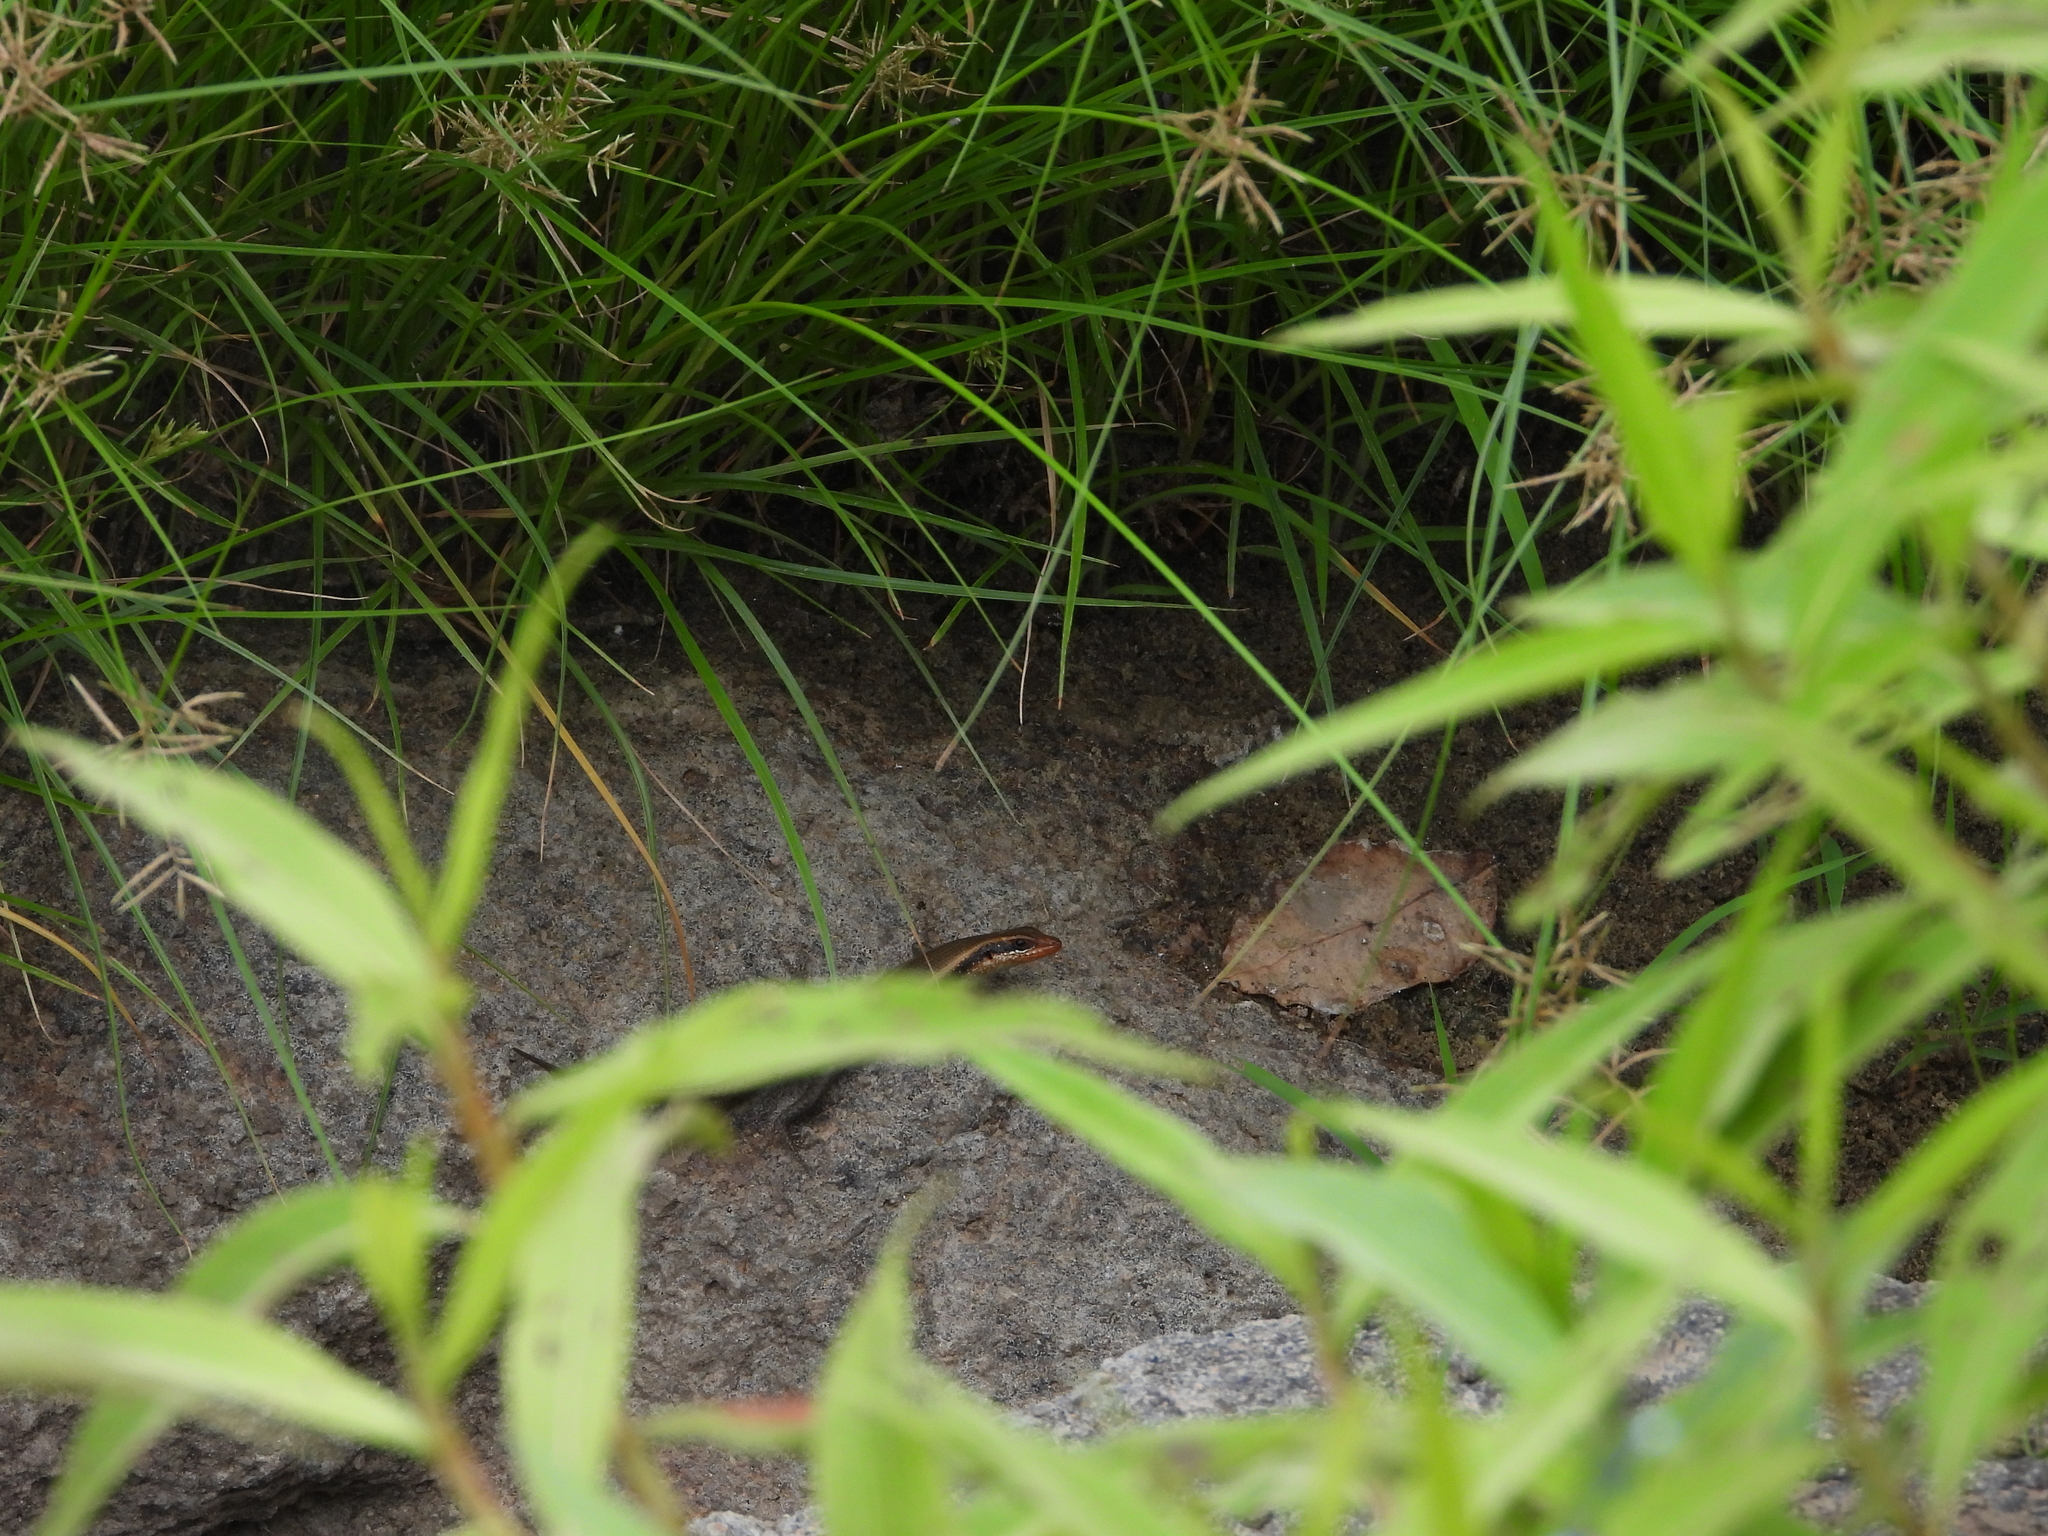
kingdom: Animalia
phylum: Chordata
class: Squamata
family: Scincidae
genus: Trachylepis
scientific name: Trachylepis wahlbergii
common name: Wahlberg’s striped skink
